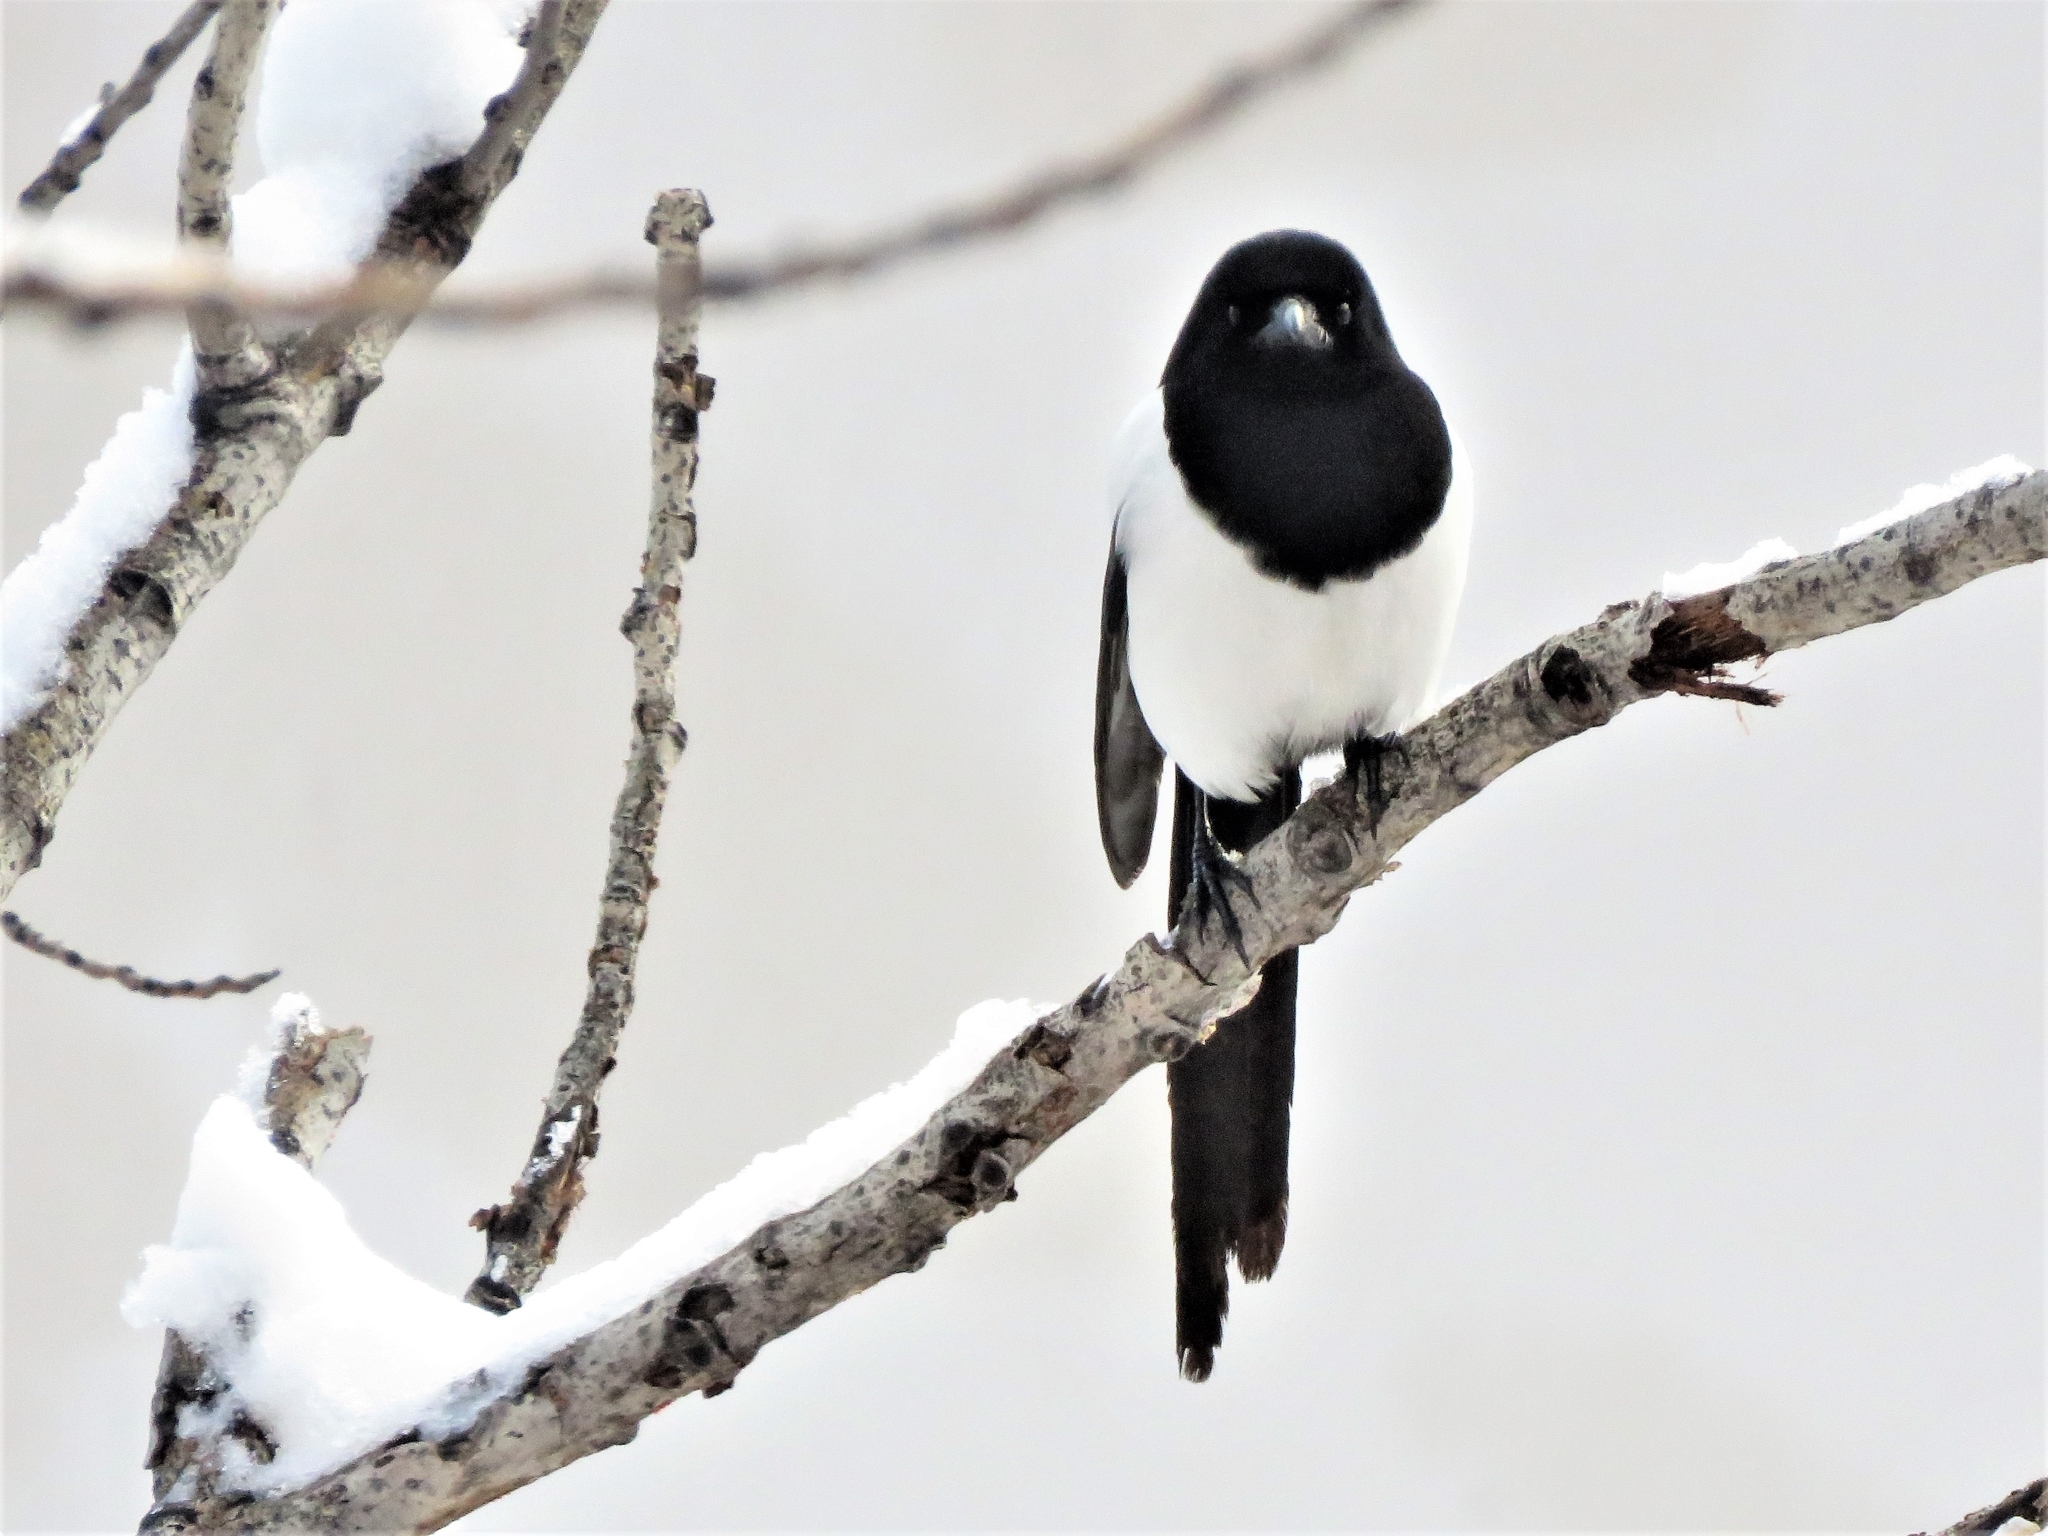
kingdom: Animalia
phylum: Chordata
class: Aves
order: Passeriformes
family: Corvidae
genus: Pica
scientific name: Pica pica
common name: Eurasian magpie
